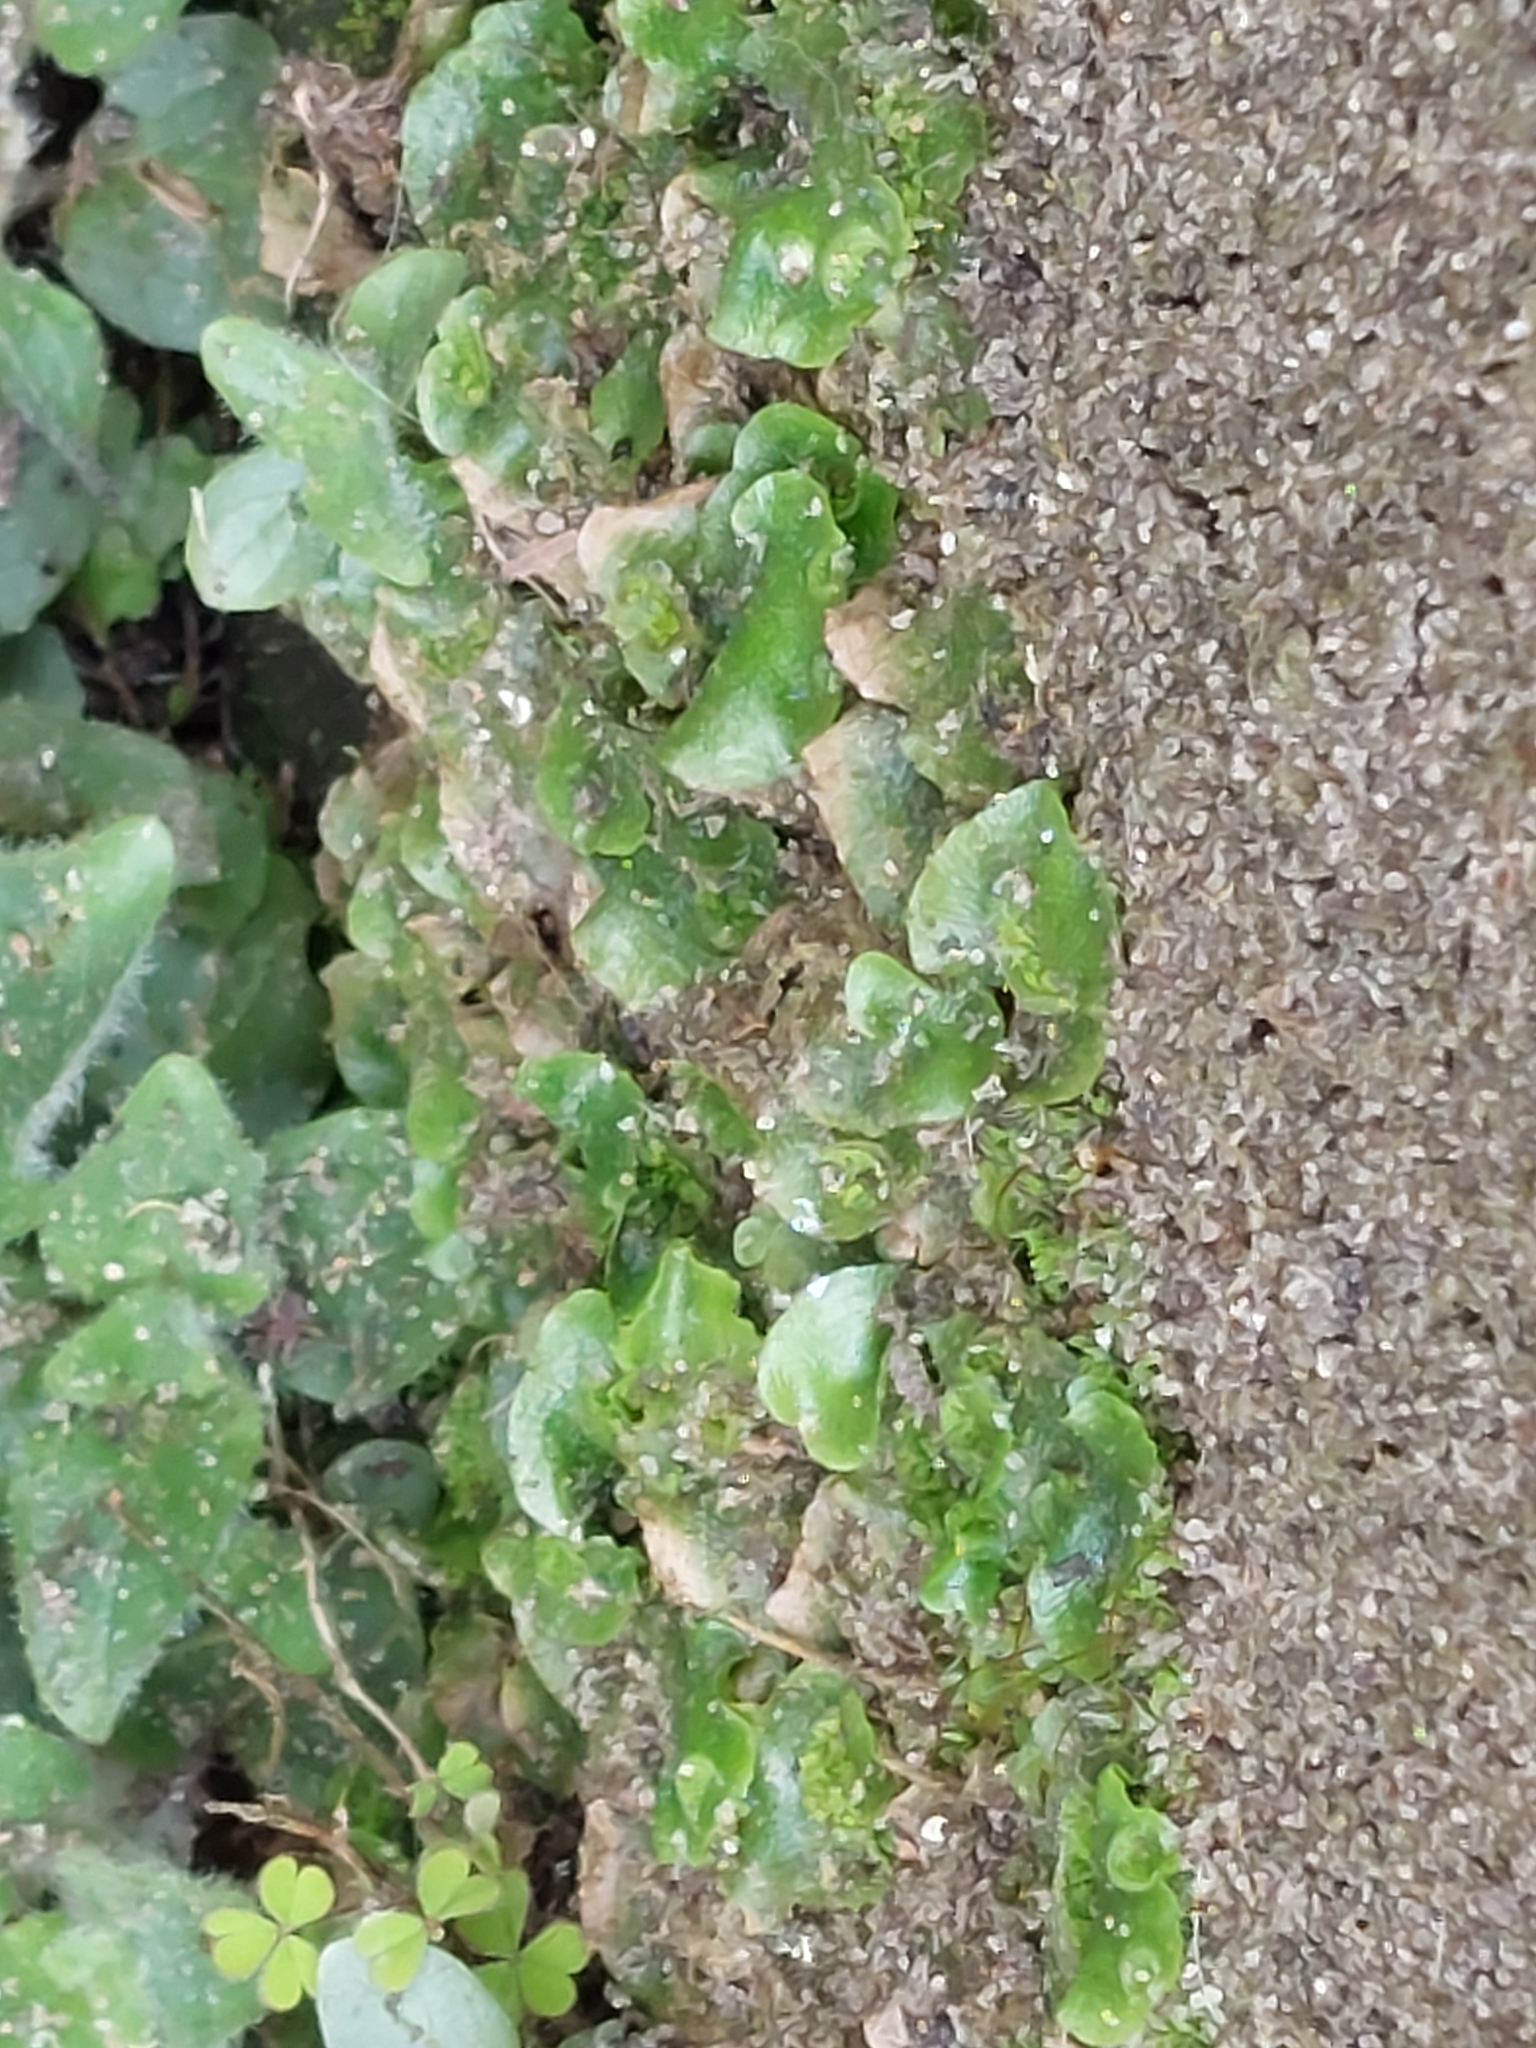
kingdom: Plantae
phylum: Marchantiophyta
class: Marchantiopsida
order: Lunulariales
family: Lunulariaceae
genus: Lunularia
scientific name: Lunularia cruciata
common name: Crescent-cup liverwort
